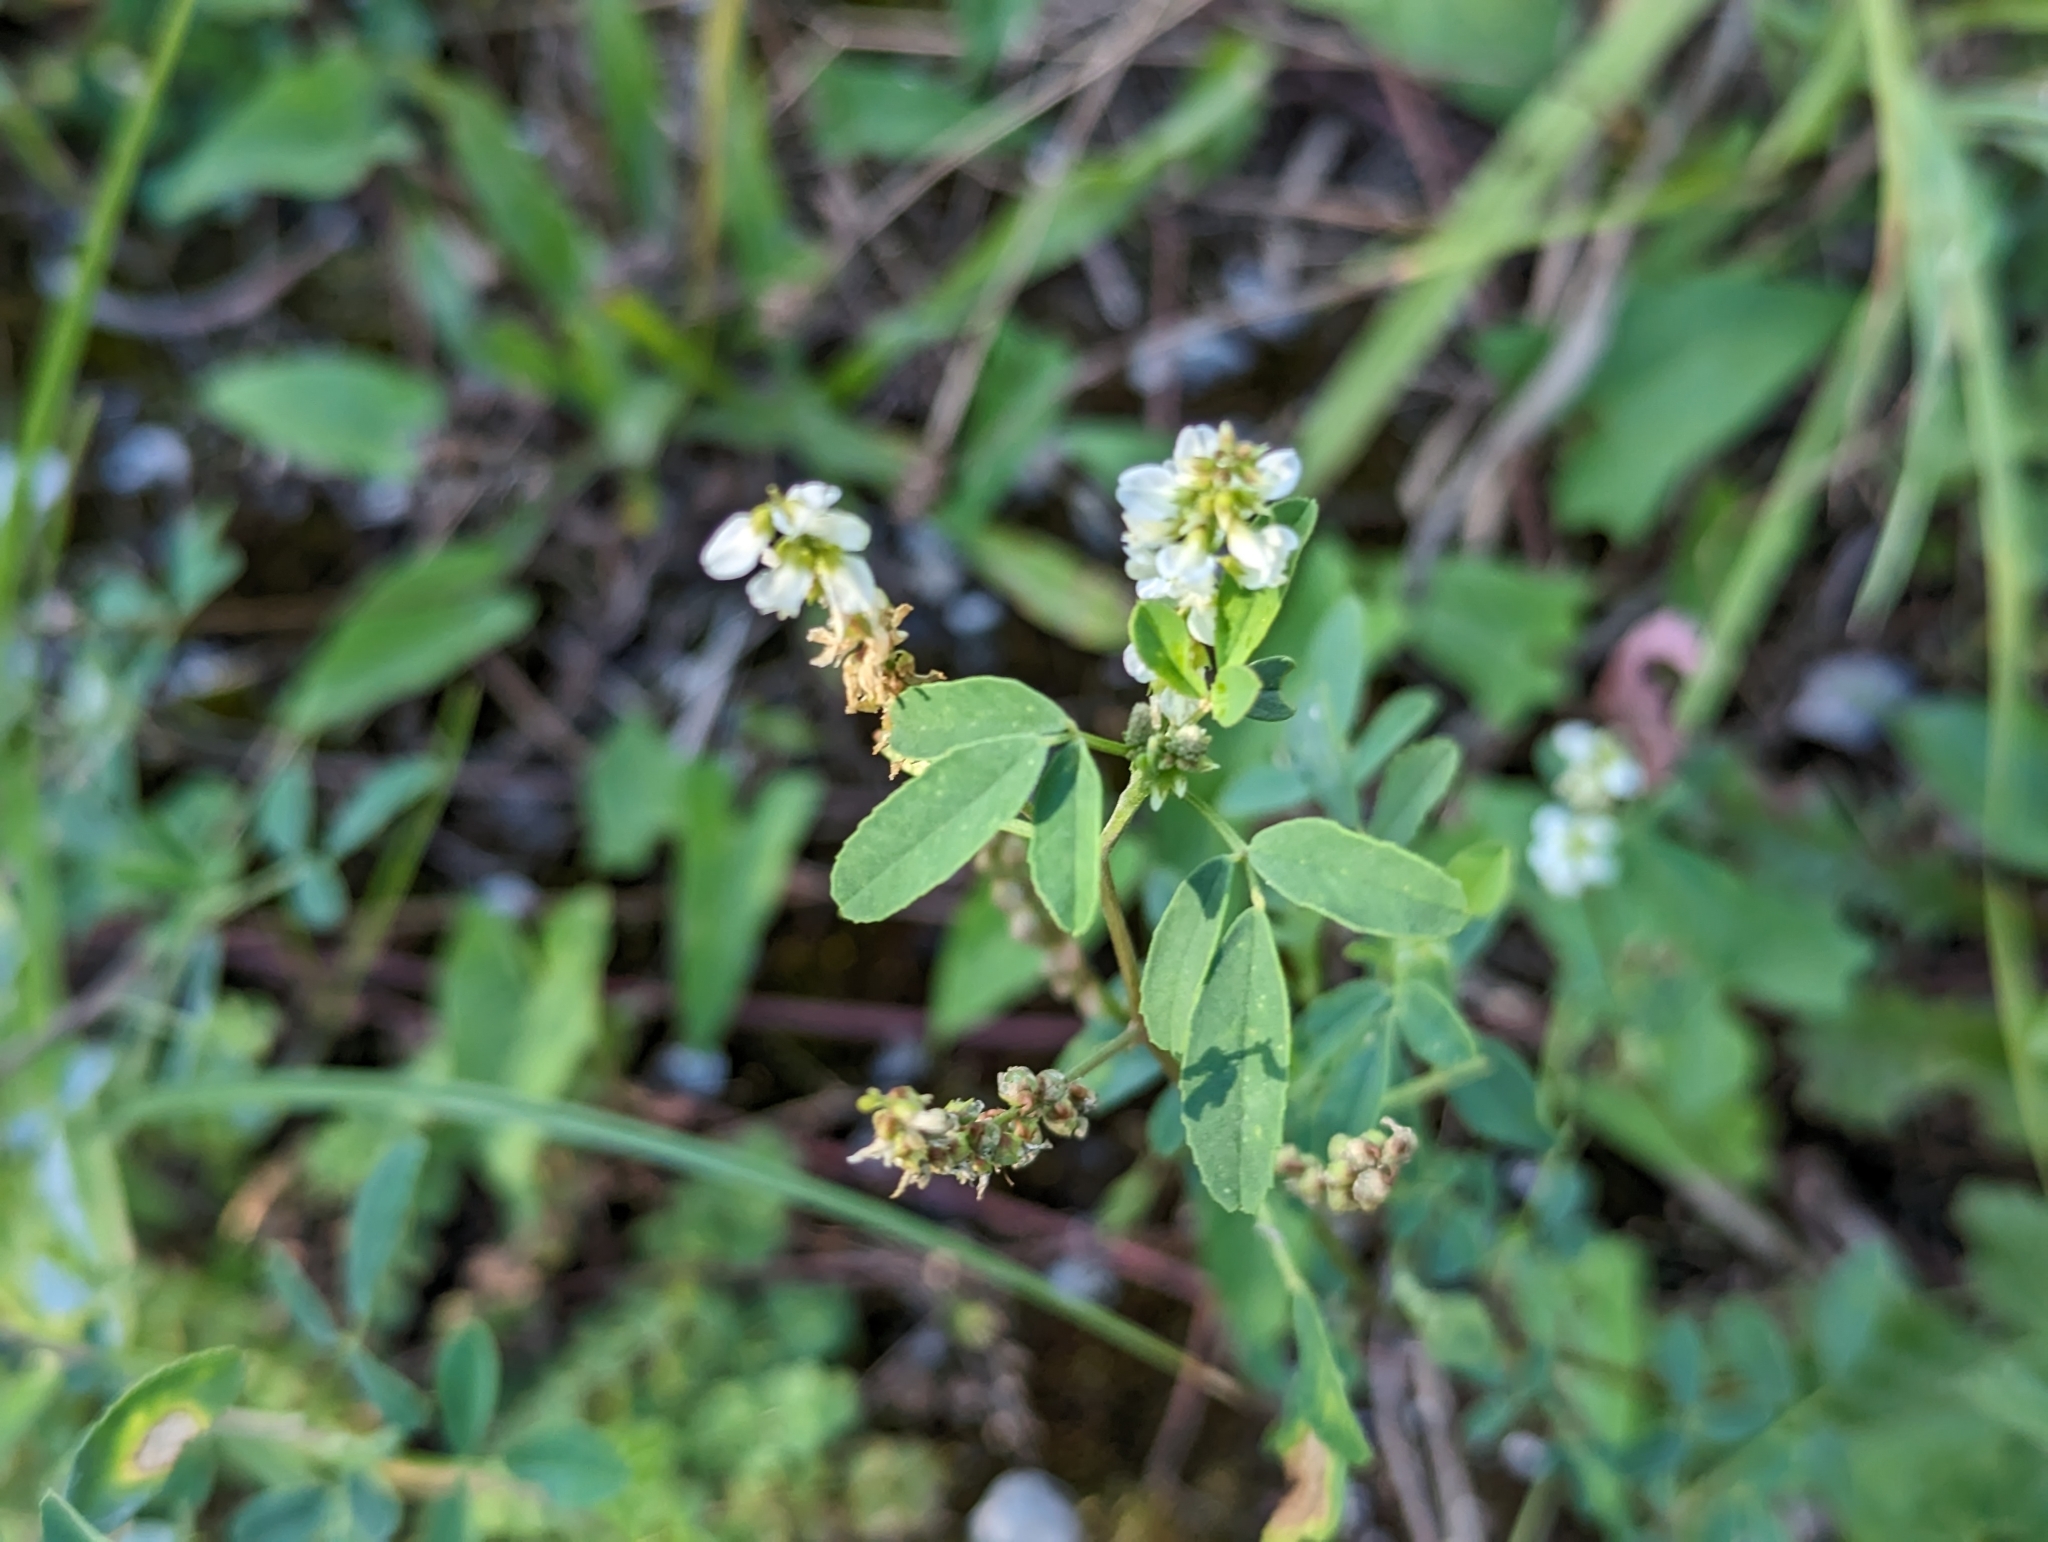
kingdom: Plantae
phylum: Tracheophyta
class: Magnoliopsida
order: Fabales
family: Fabaceae
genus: Melilotus
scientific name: Melilotus albus
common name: White melilot
